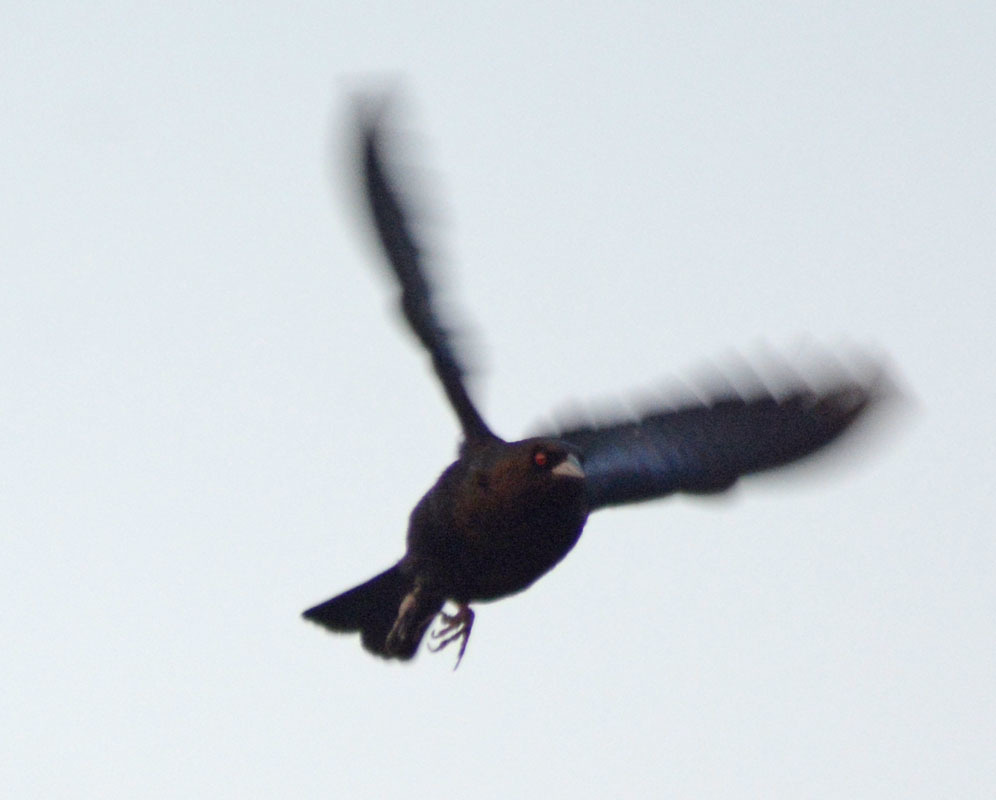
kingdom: Animalia
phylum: Chordata
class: Aves
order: Passeriformes
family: Icteridae
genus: Molothrus
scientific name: Molothrus aeneus
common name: Bronzed cowbird
